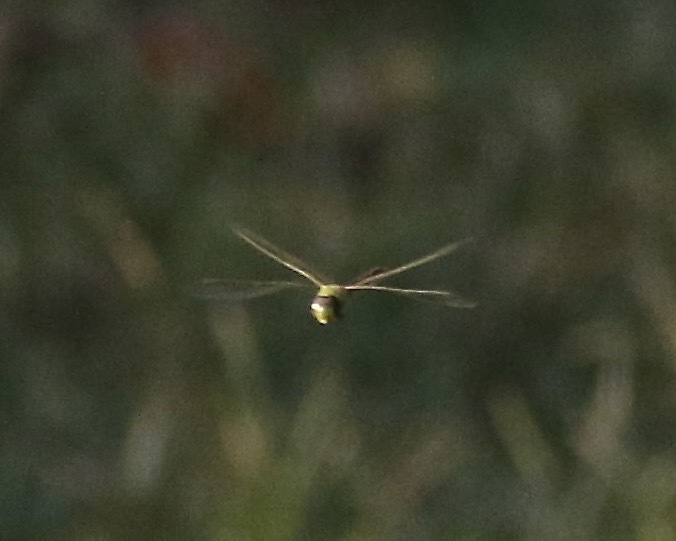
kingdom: Animalia
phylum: Arthropoda
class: Insecta
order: Odonata
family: Aeshnidae
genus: Anax
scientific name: Anax junius
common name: Common green darner
